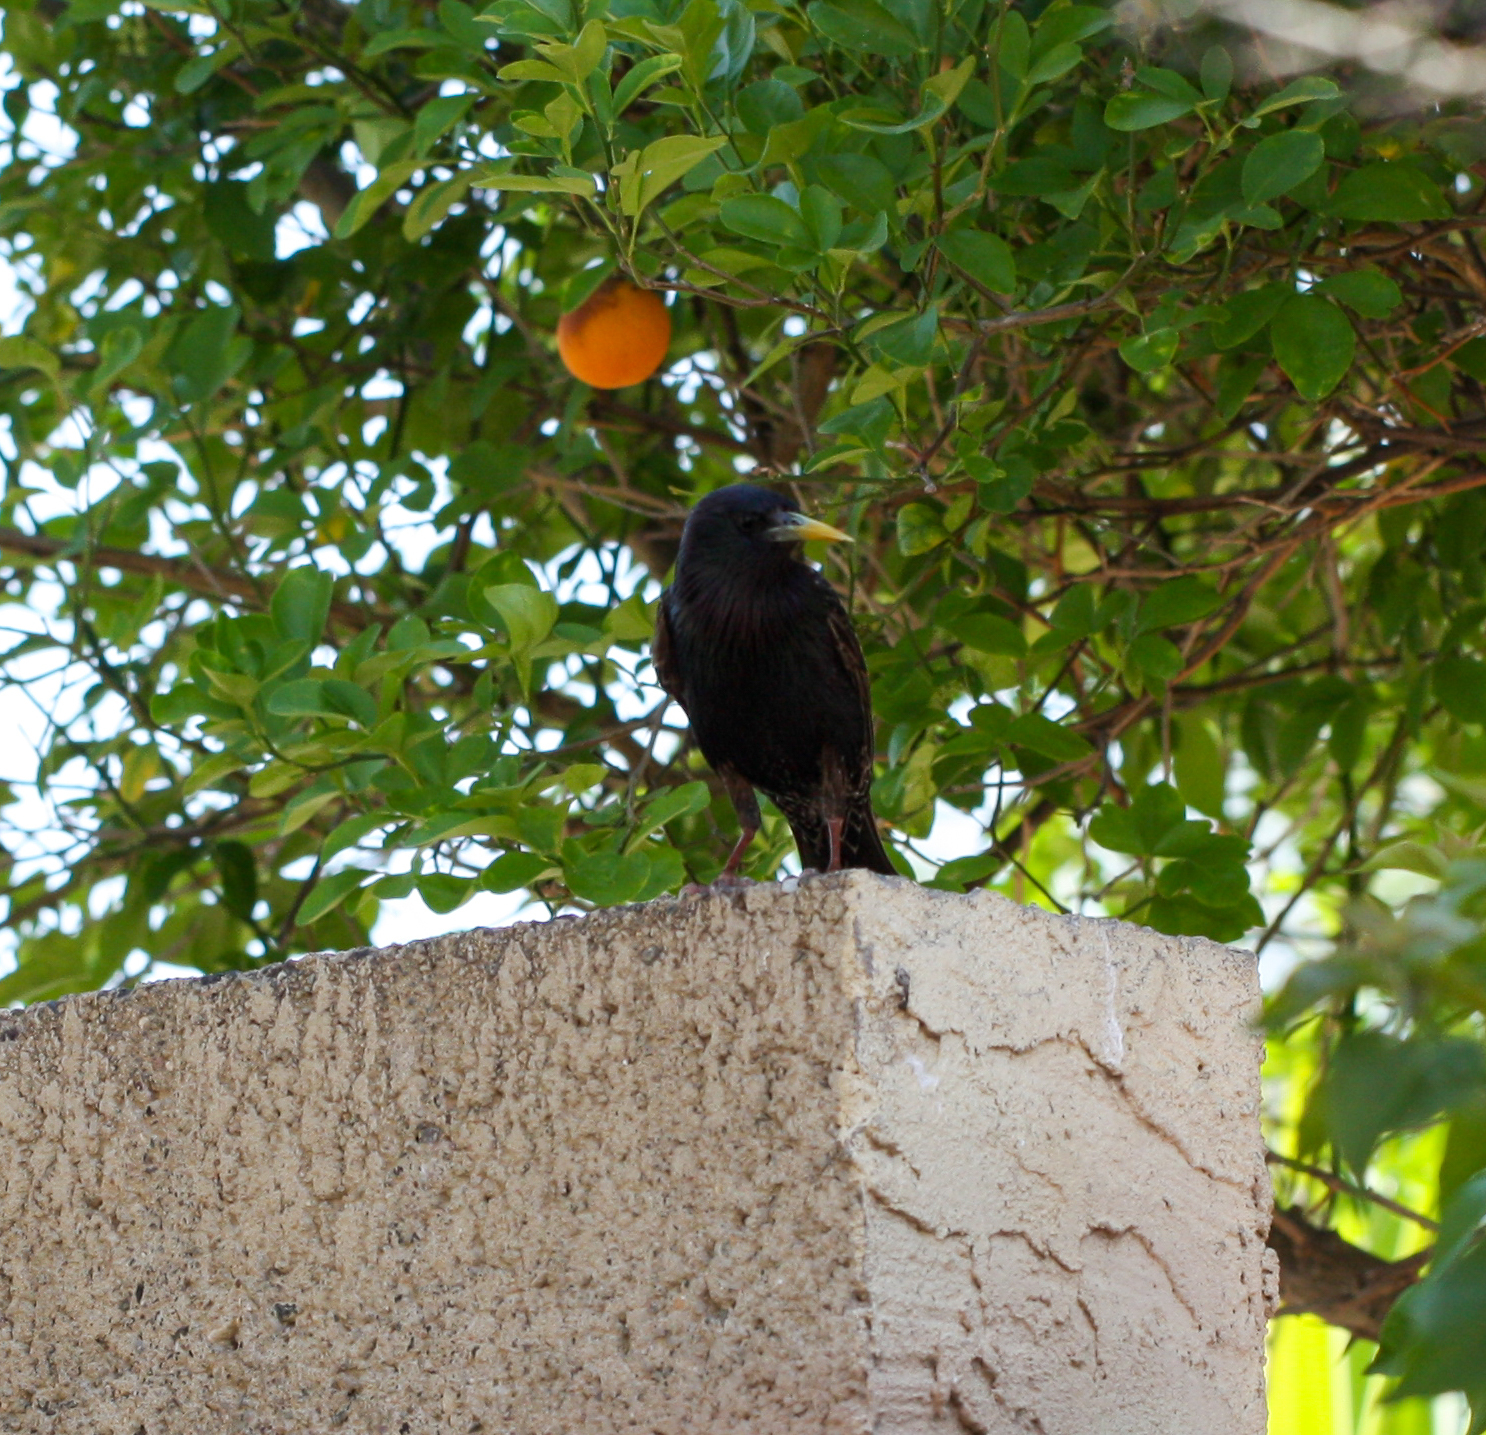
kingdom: Animalia
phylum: Chordata
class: Aves
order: Passeriformes
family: Sturnidae
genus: Sturnus
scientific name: Sturnus vulgaris
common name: Common starling
